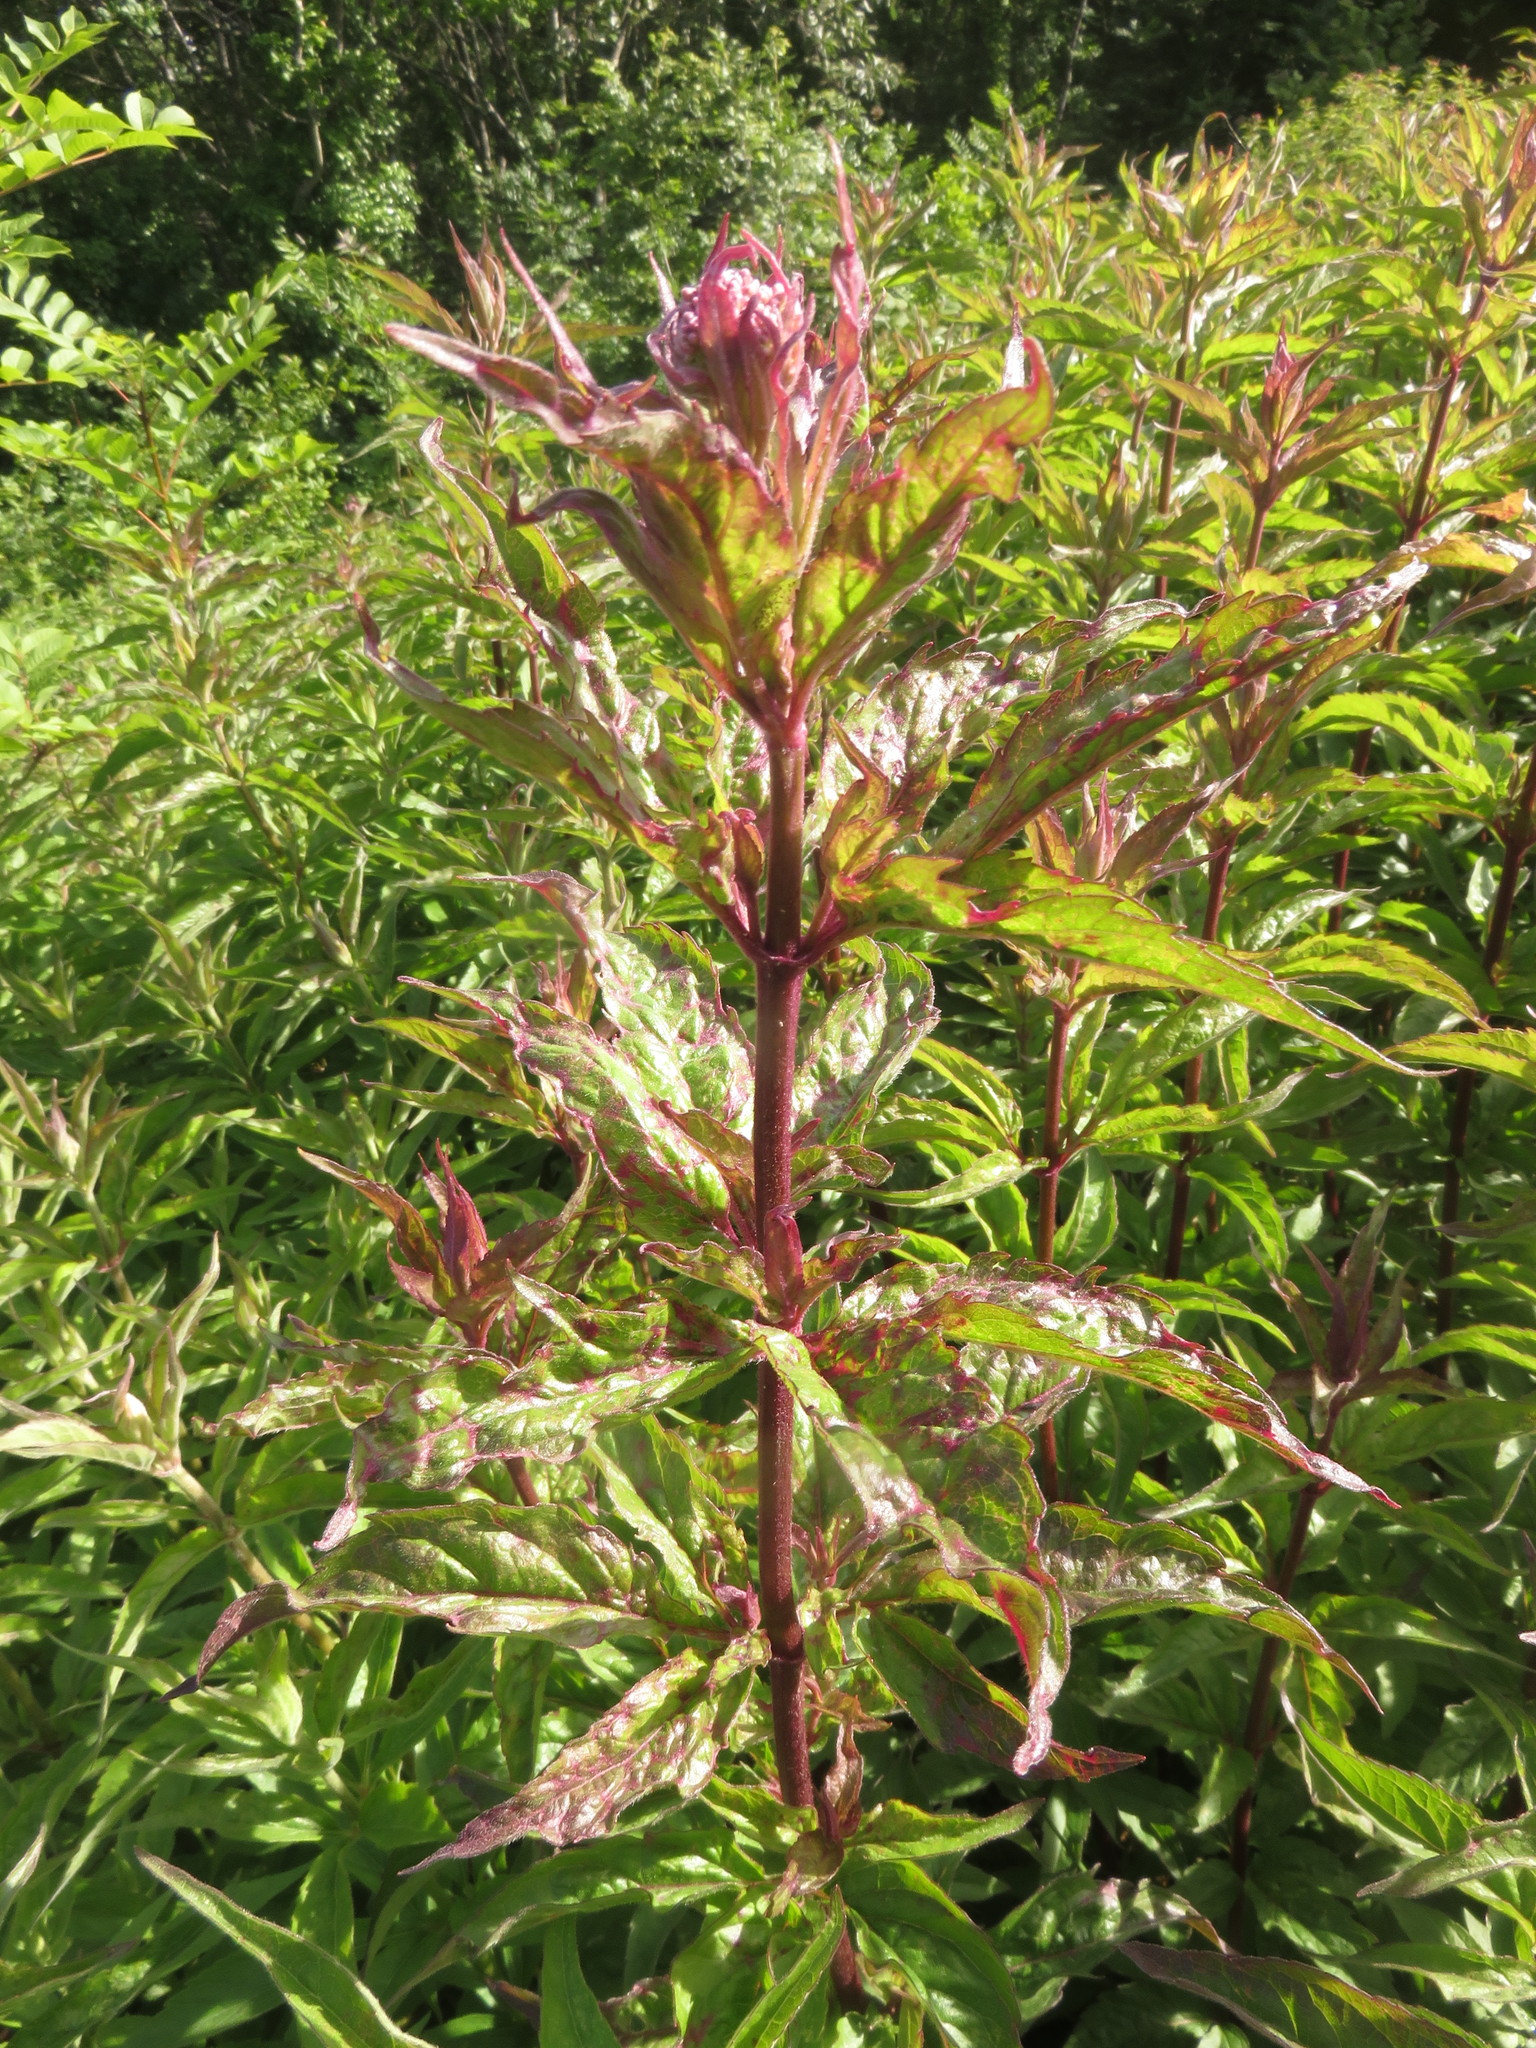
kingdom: Plantae
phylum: Tracheophyta
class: Magnoliopsida
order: Asterales
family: Asteraceae
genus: Eupatorium
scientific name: Eupatorium cannabinum
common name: Hemp-agrimony
